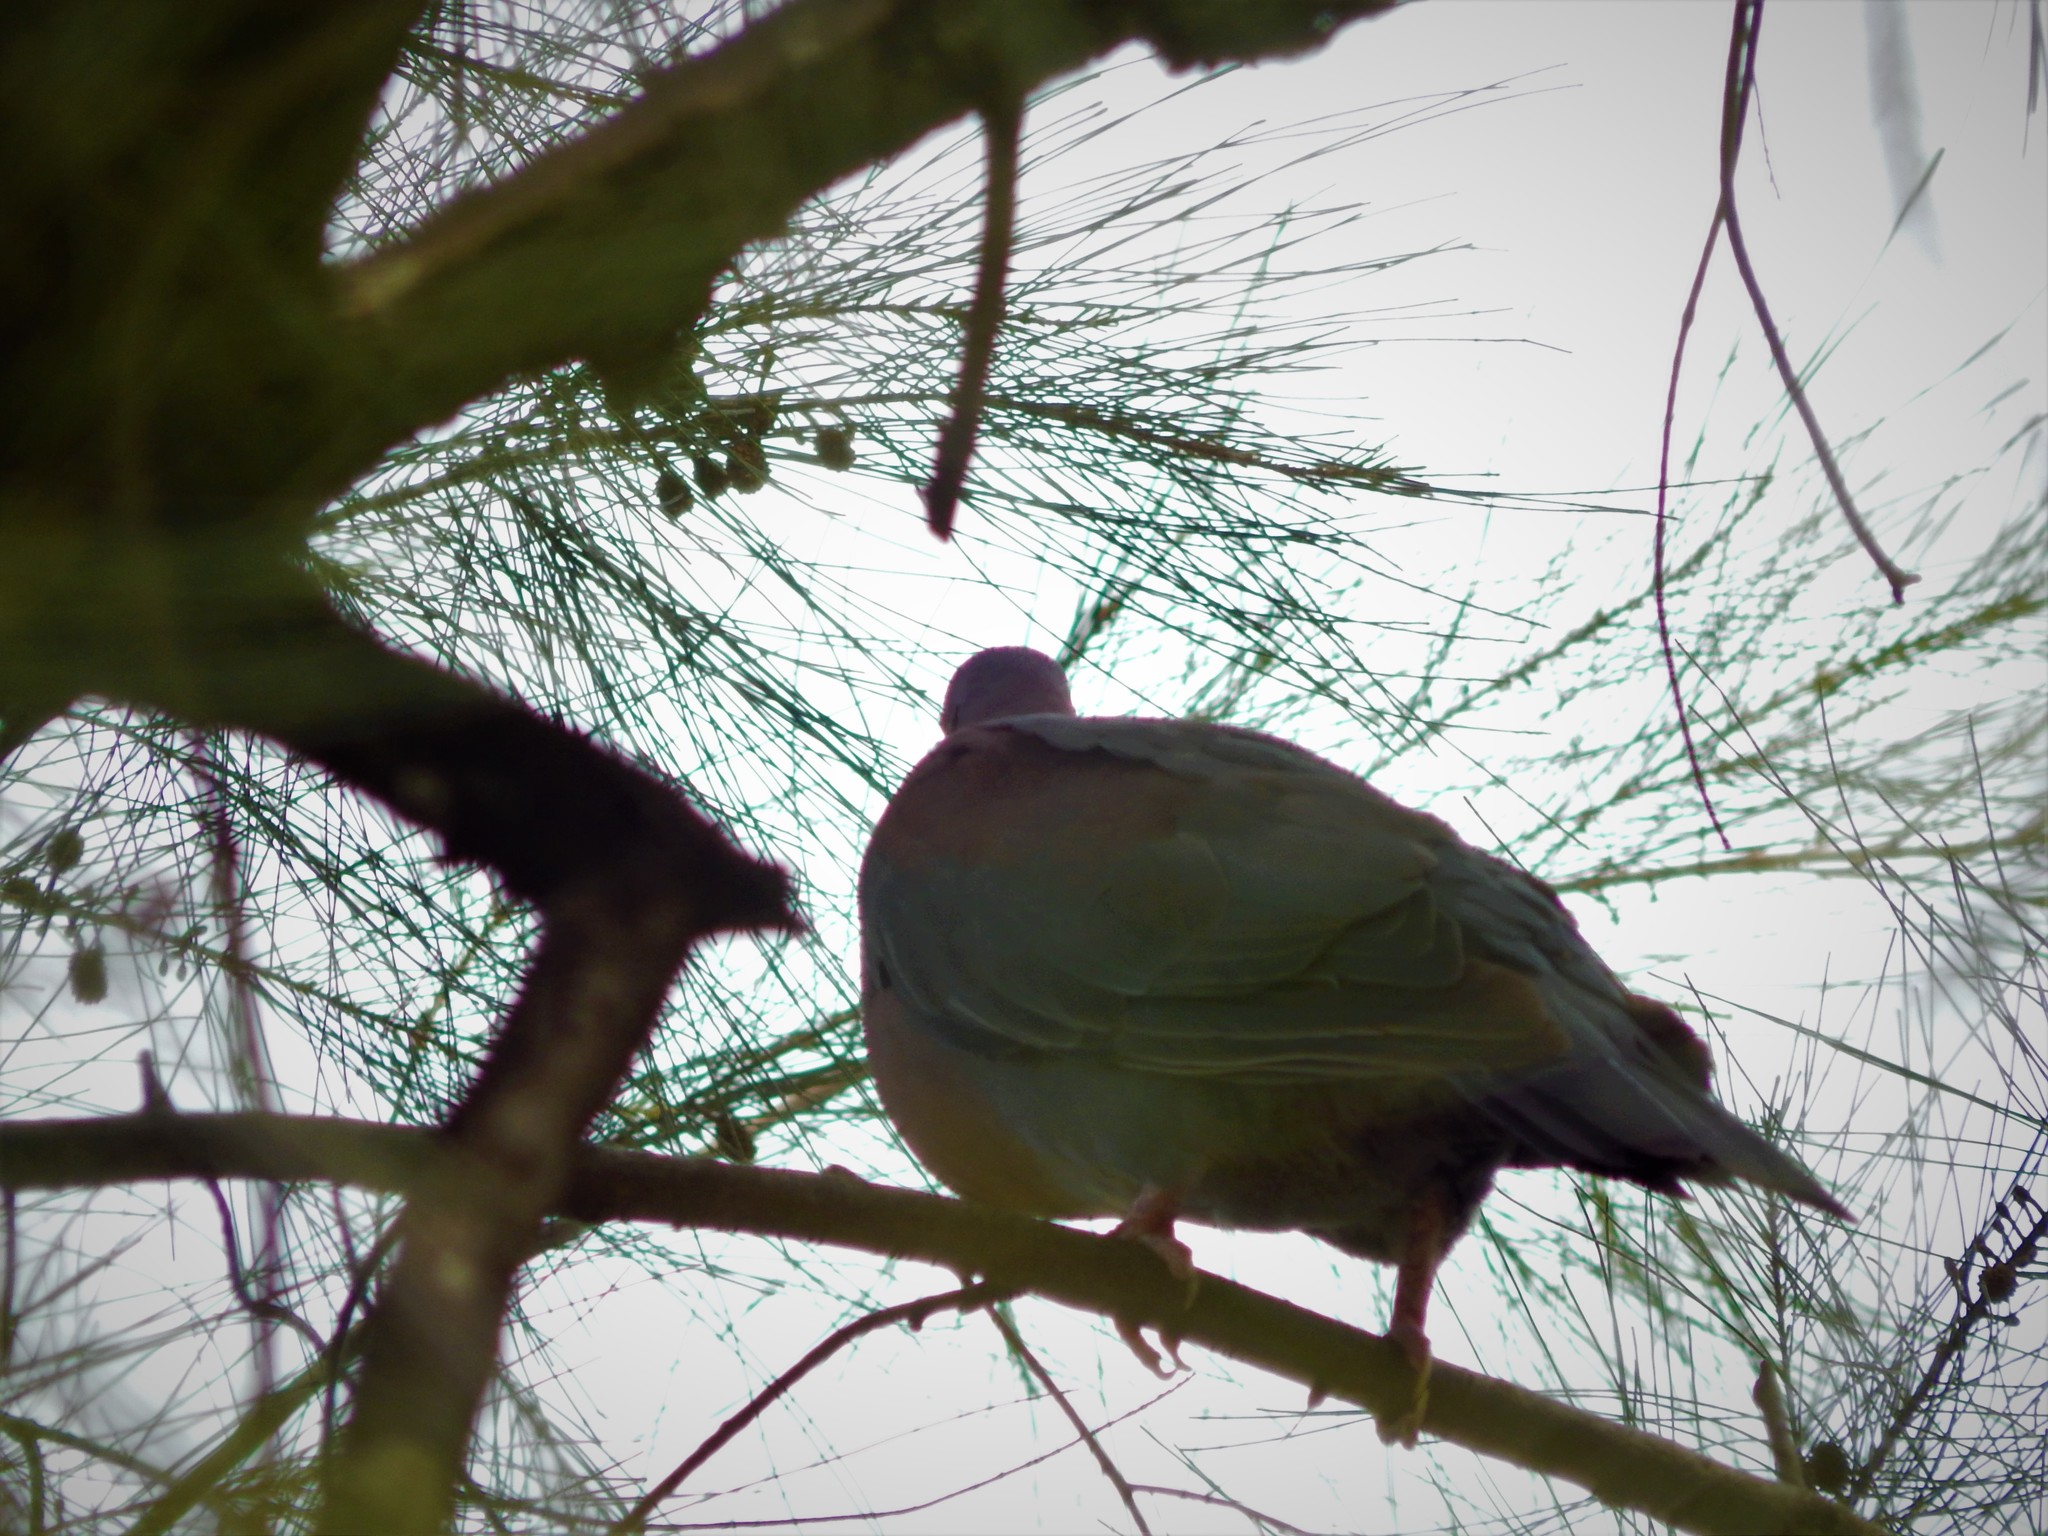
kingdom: Animalia
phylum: Chordata
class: Aves
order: Columbiformes
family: Columbidae
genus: Patagioenas
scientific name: Patagioenas flavirostris
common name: Red-billed pigeon
